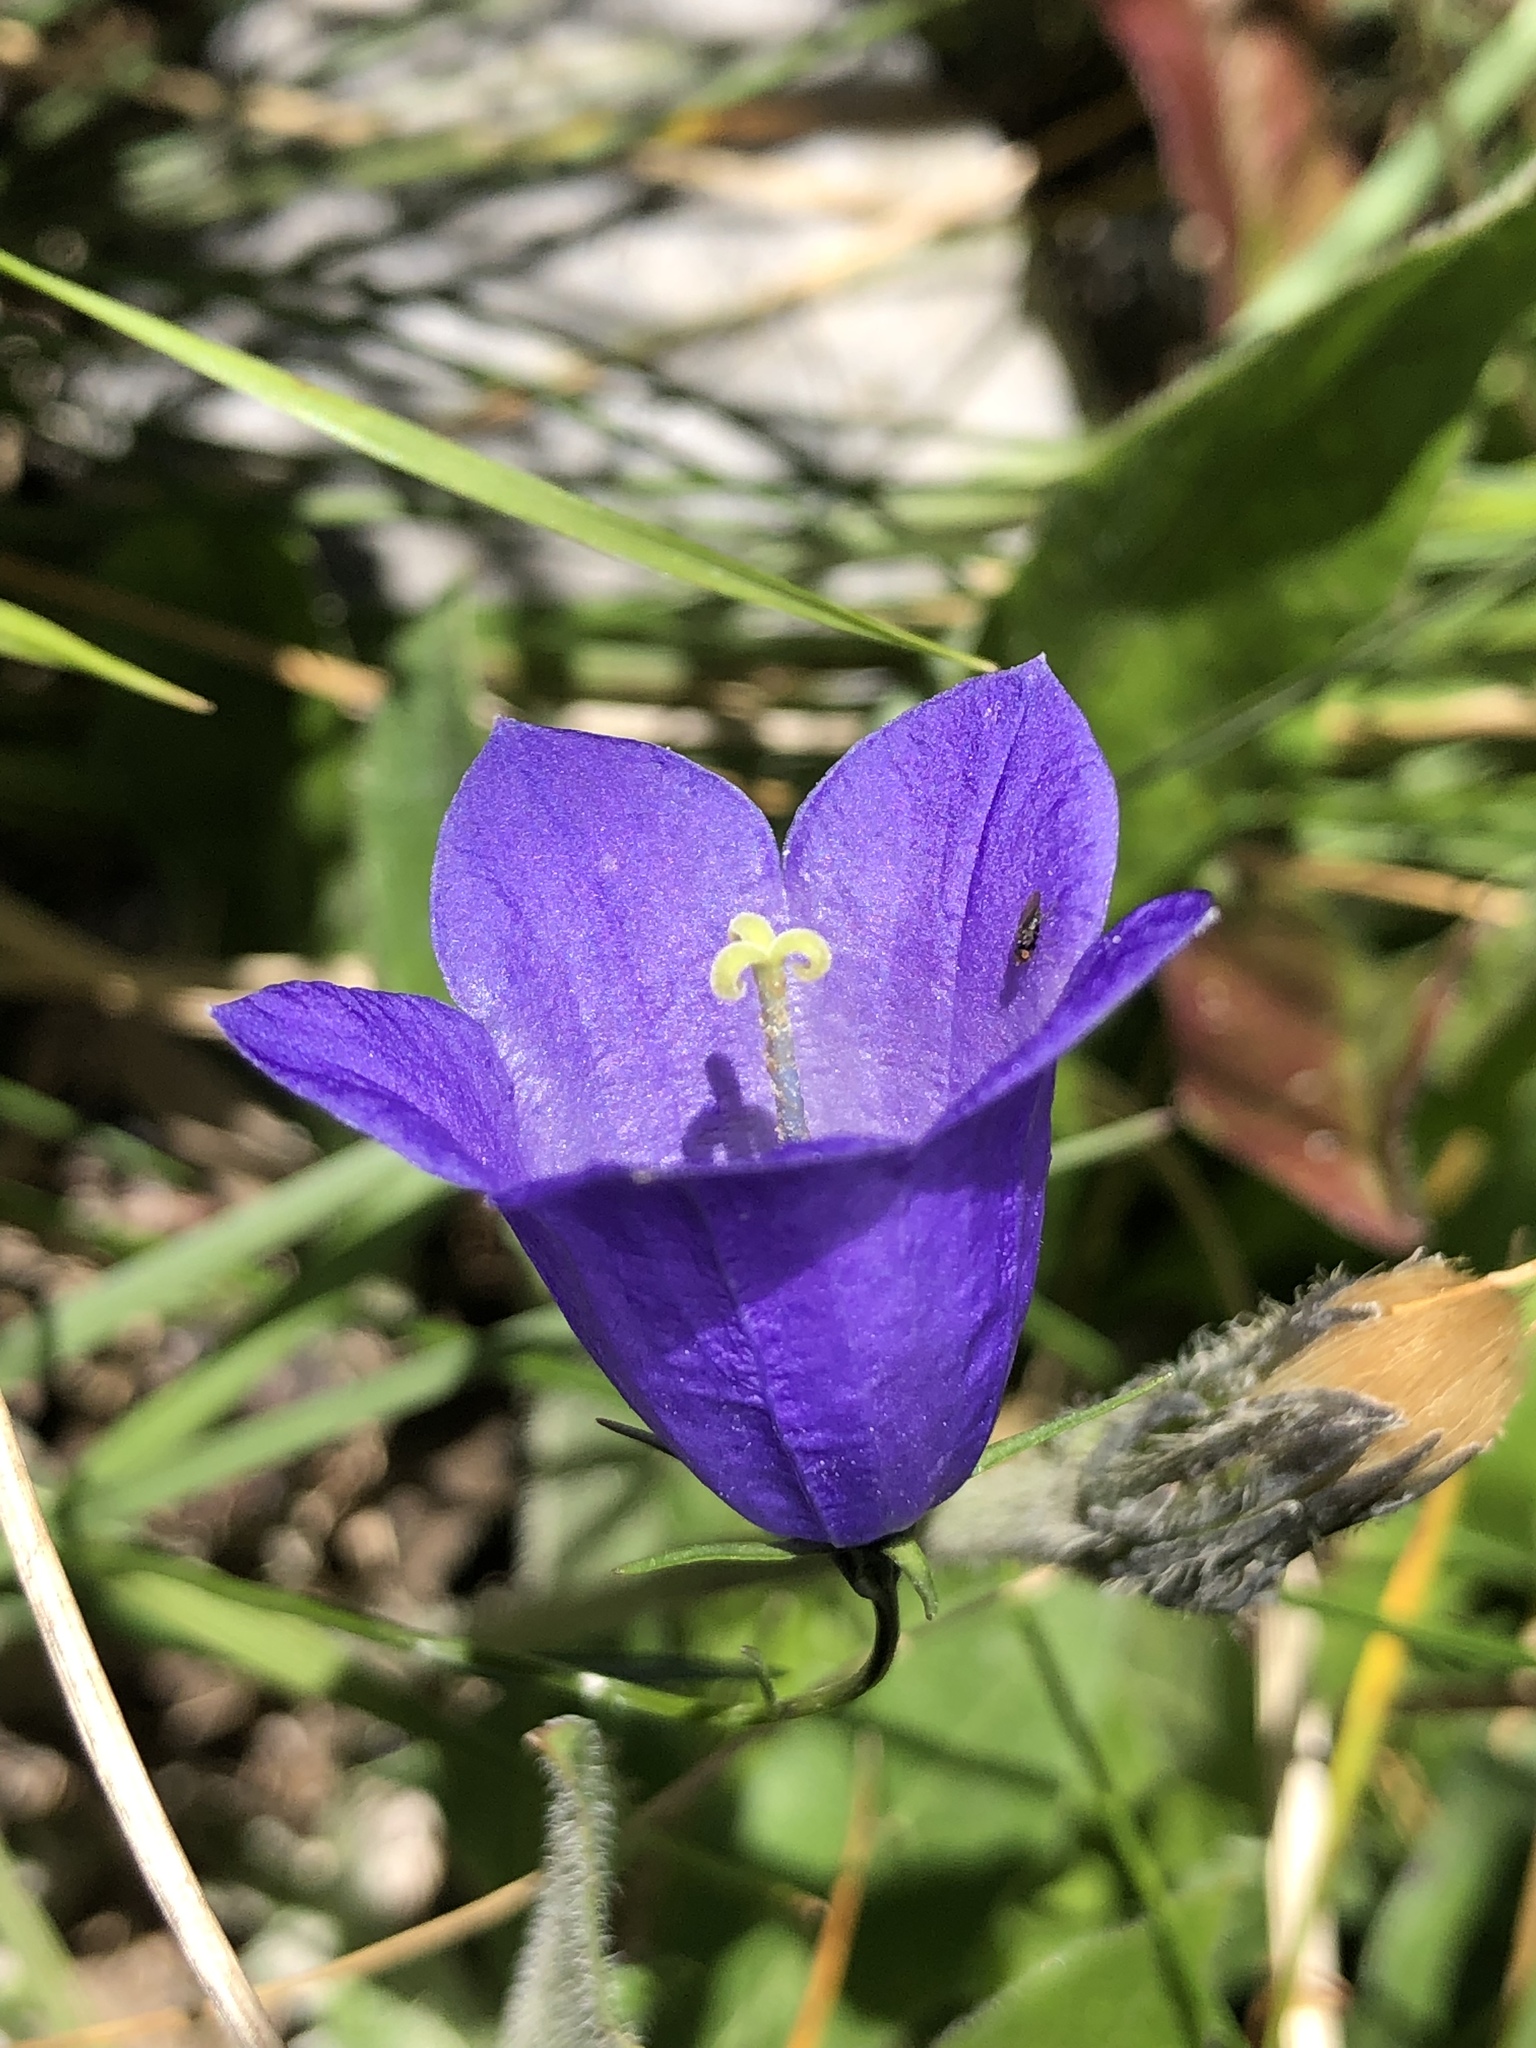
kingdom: Plantae
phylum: Tracheophyta
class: Magnoliopsida
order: Asterales
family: Campanulaceae
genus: Campanula
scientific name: Campanula scheuchzeri
